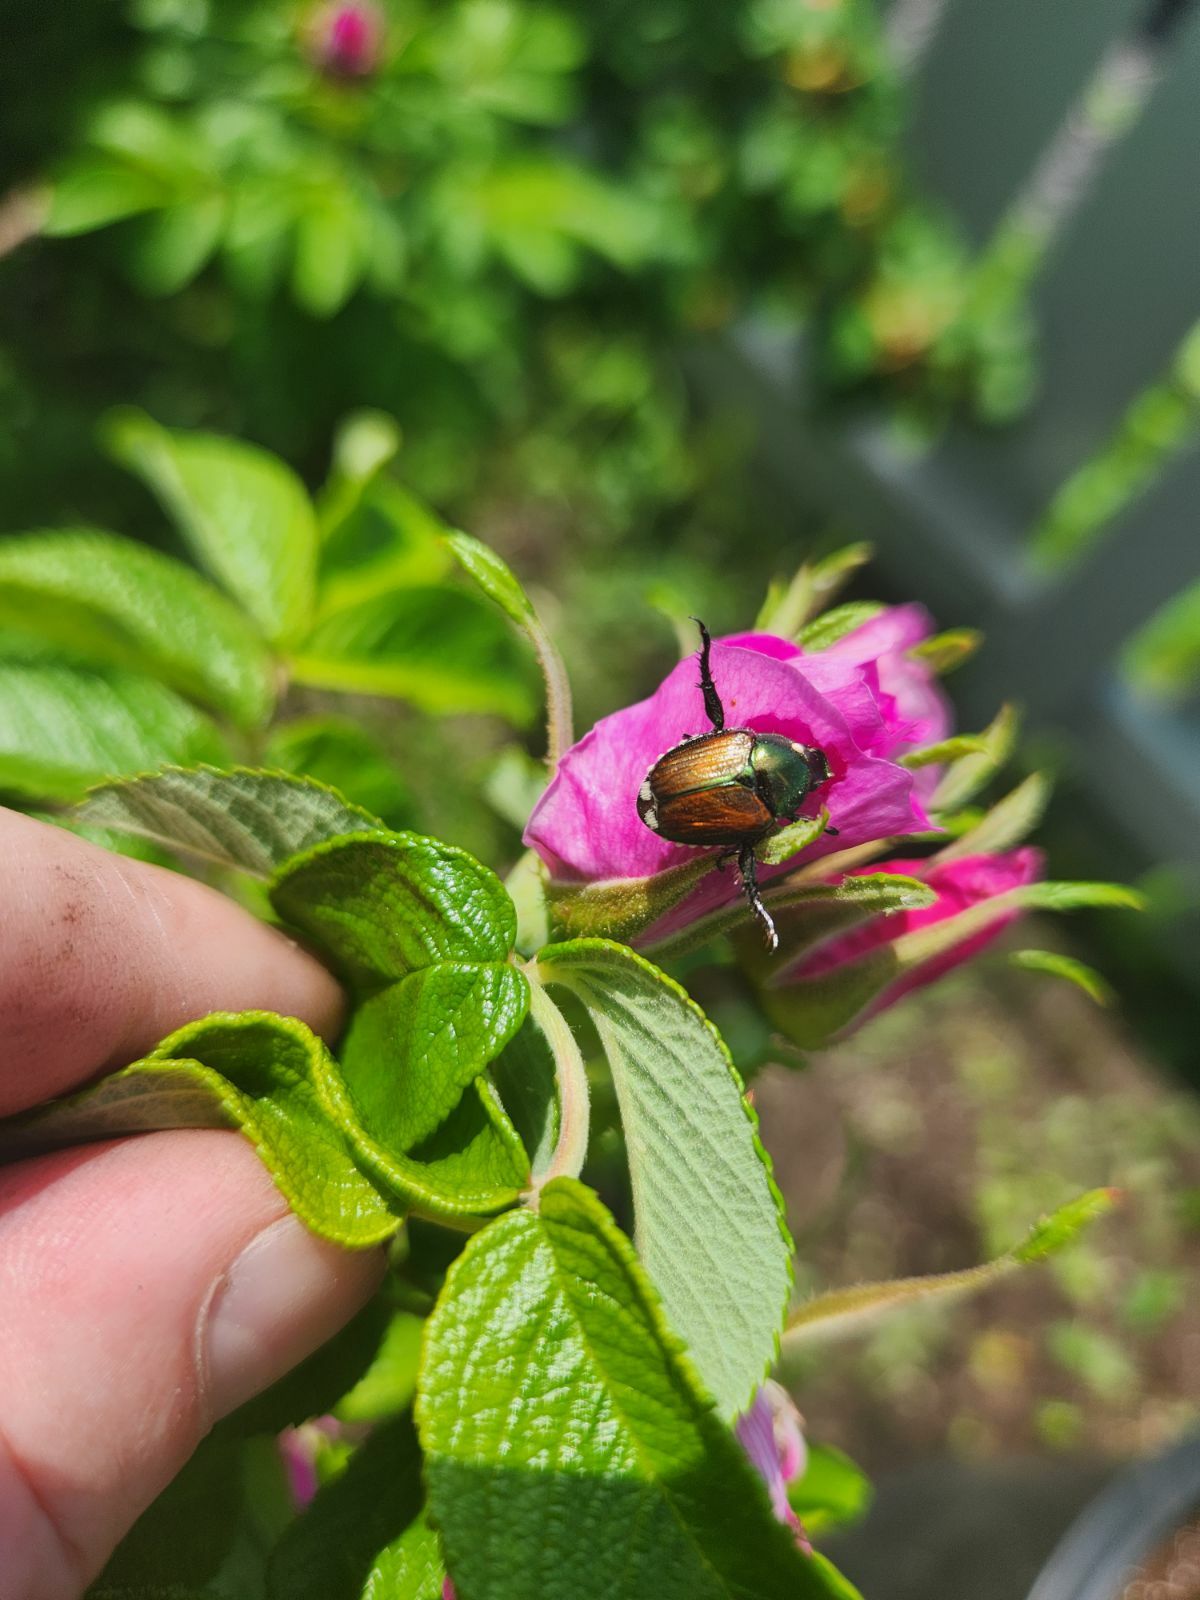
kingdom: Animalia
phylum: Arthropoda
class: Insecta
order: Coleoptera
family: Scarabaeidae
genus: Popillia
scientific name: Popillia japonica
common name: Japanese beetle
